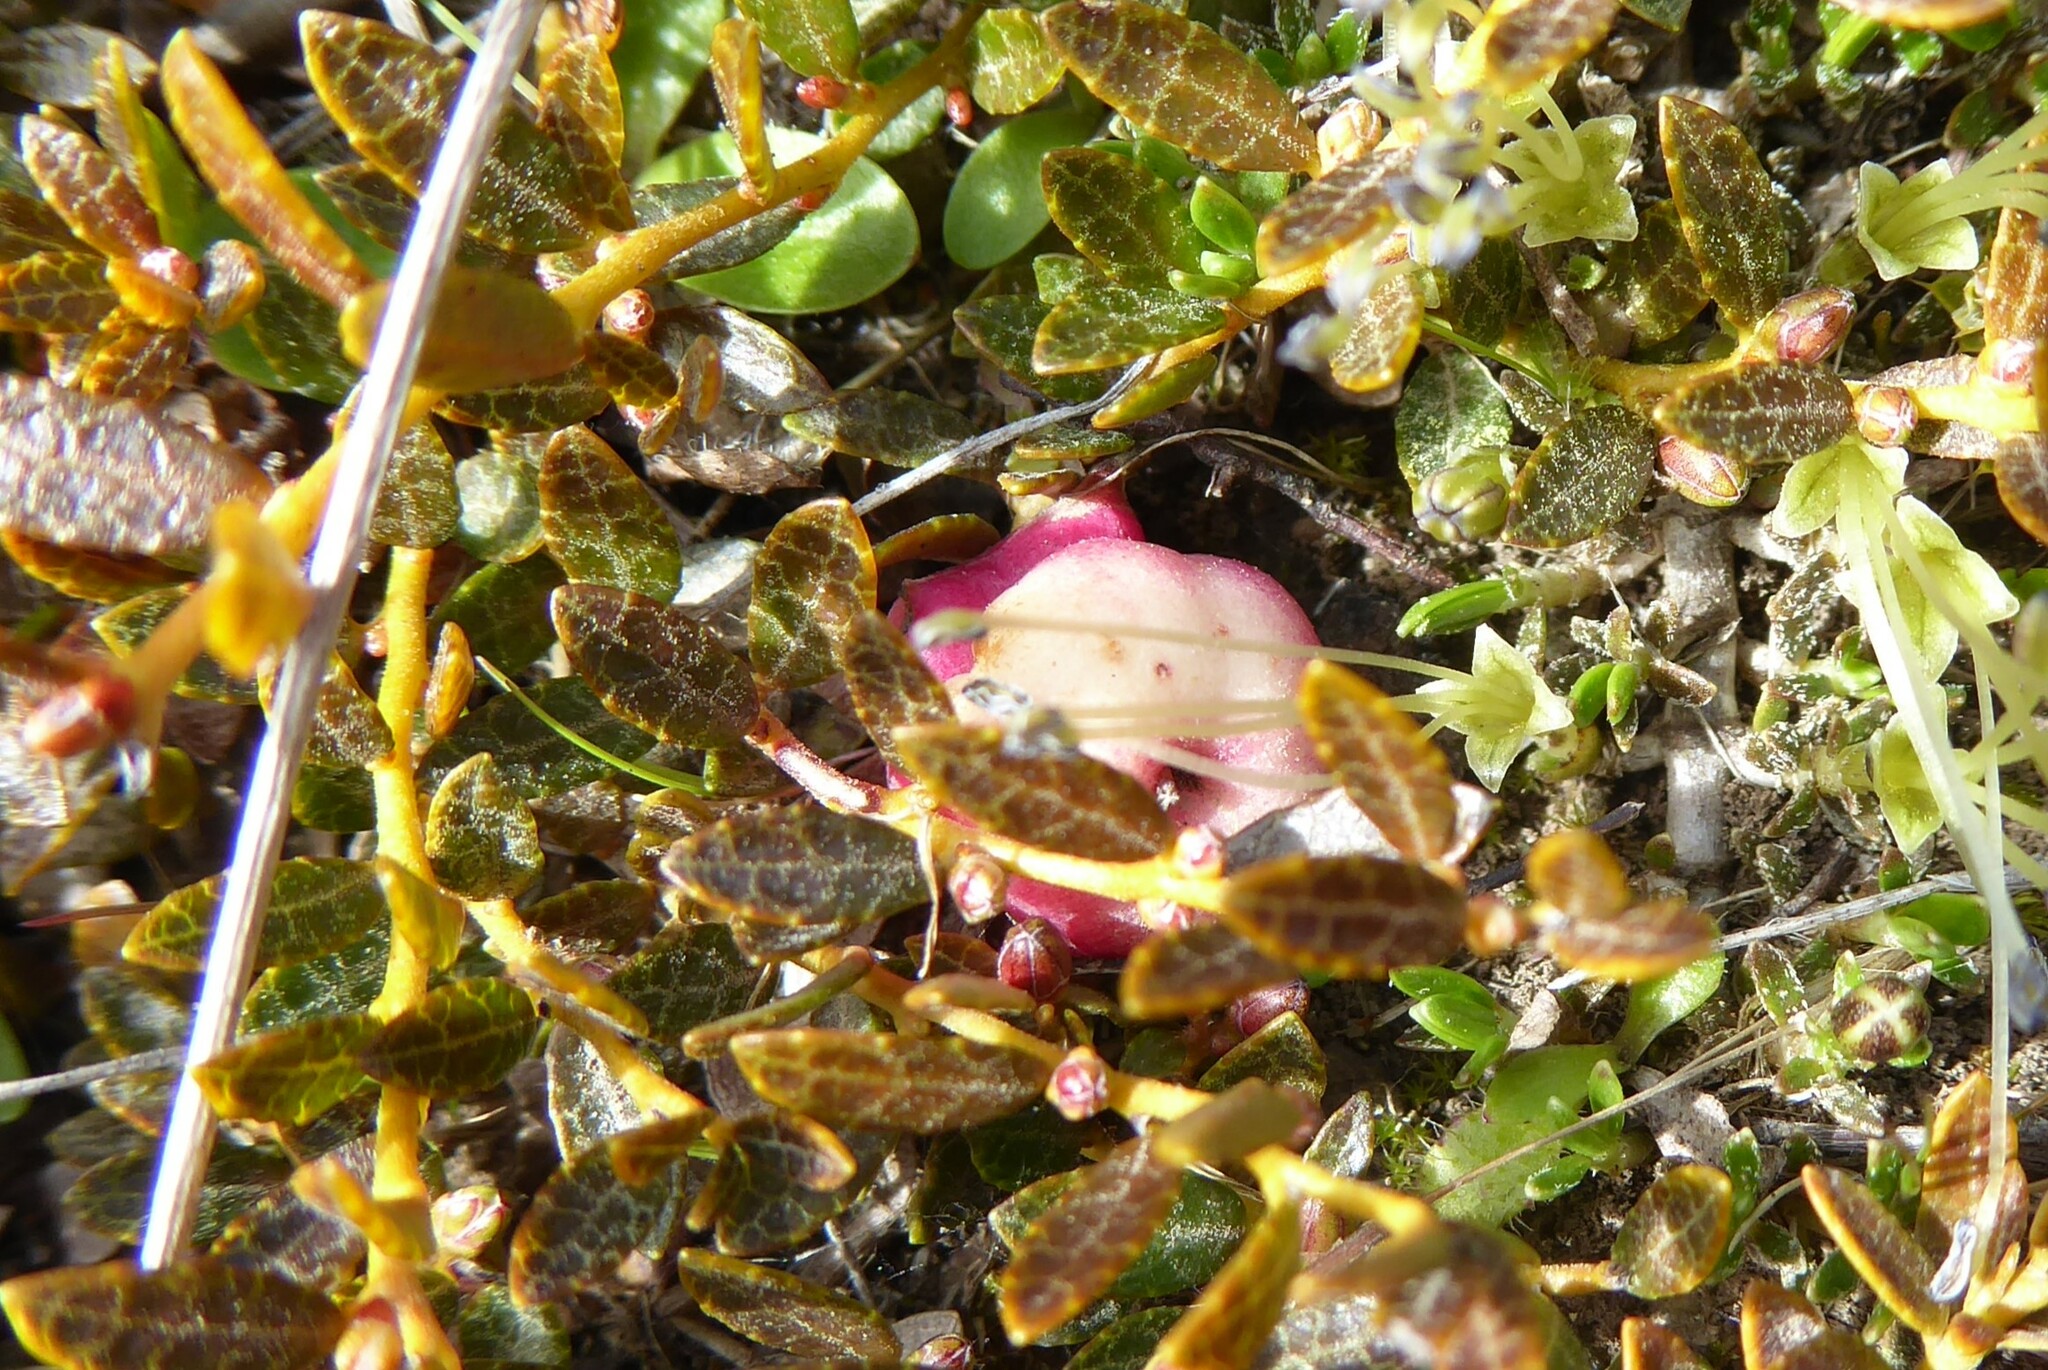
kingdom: Plantae
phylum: Tracheophyta
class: Magnoliopsida
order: Ericales
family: Ericaceae
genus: Gaultheria
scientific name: Gaultheria parvula
